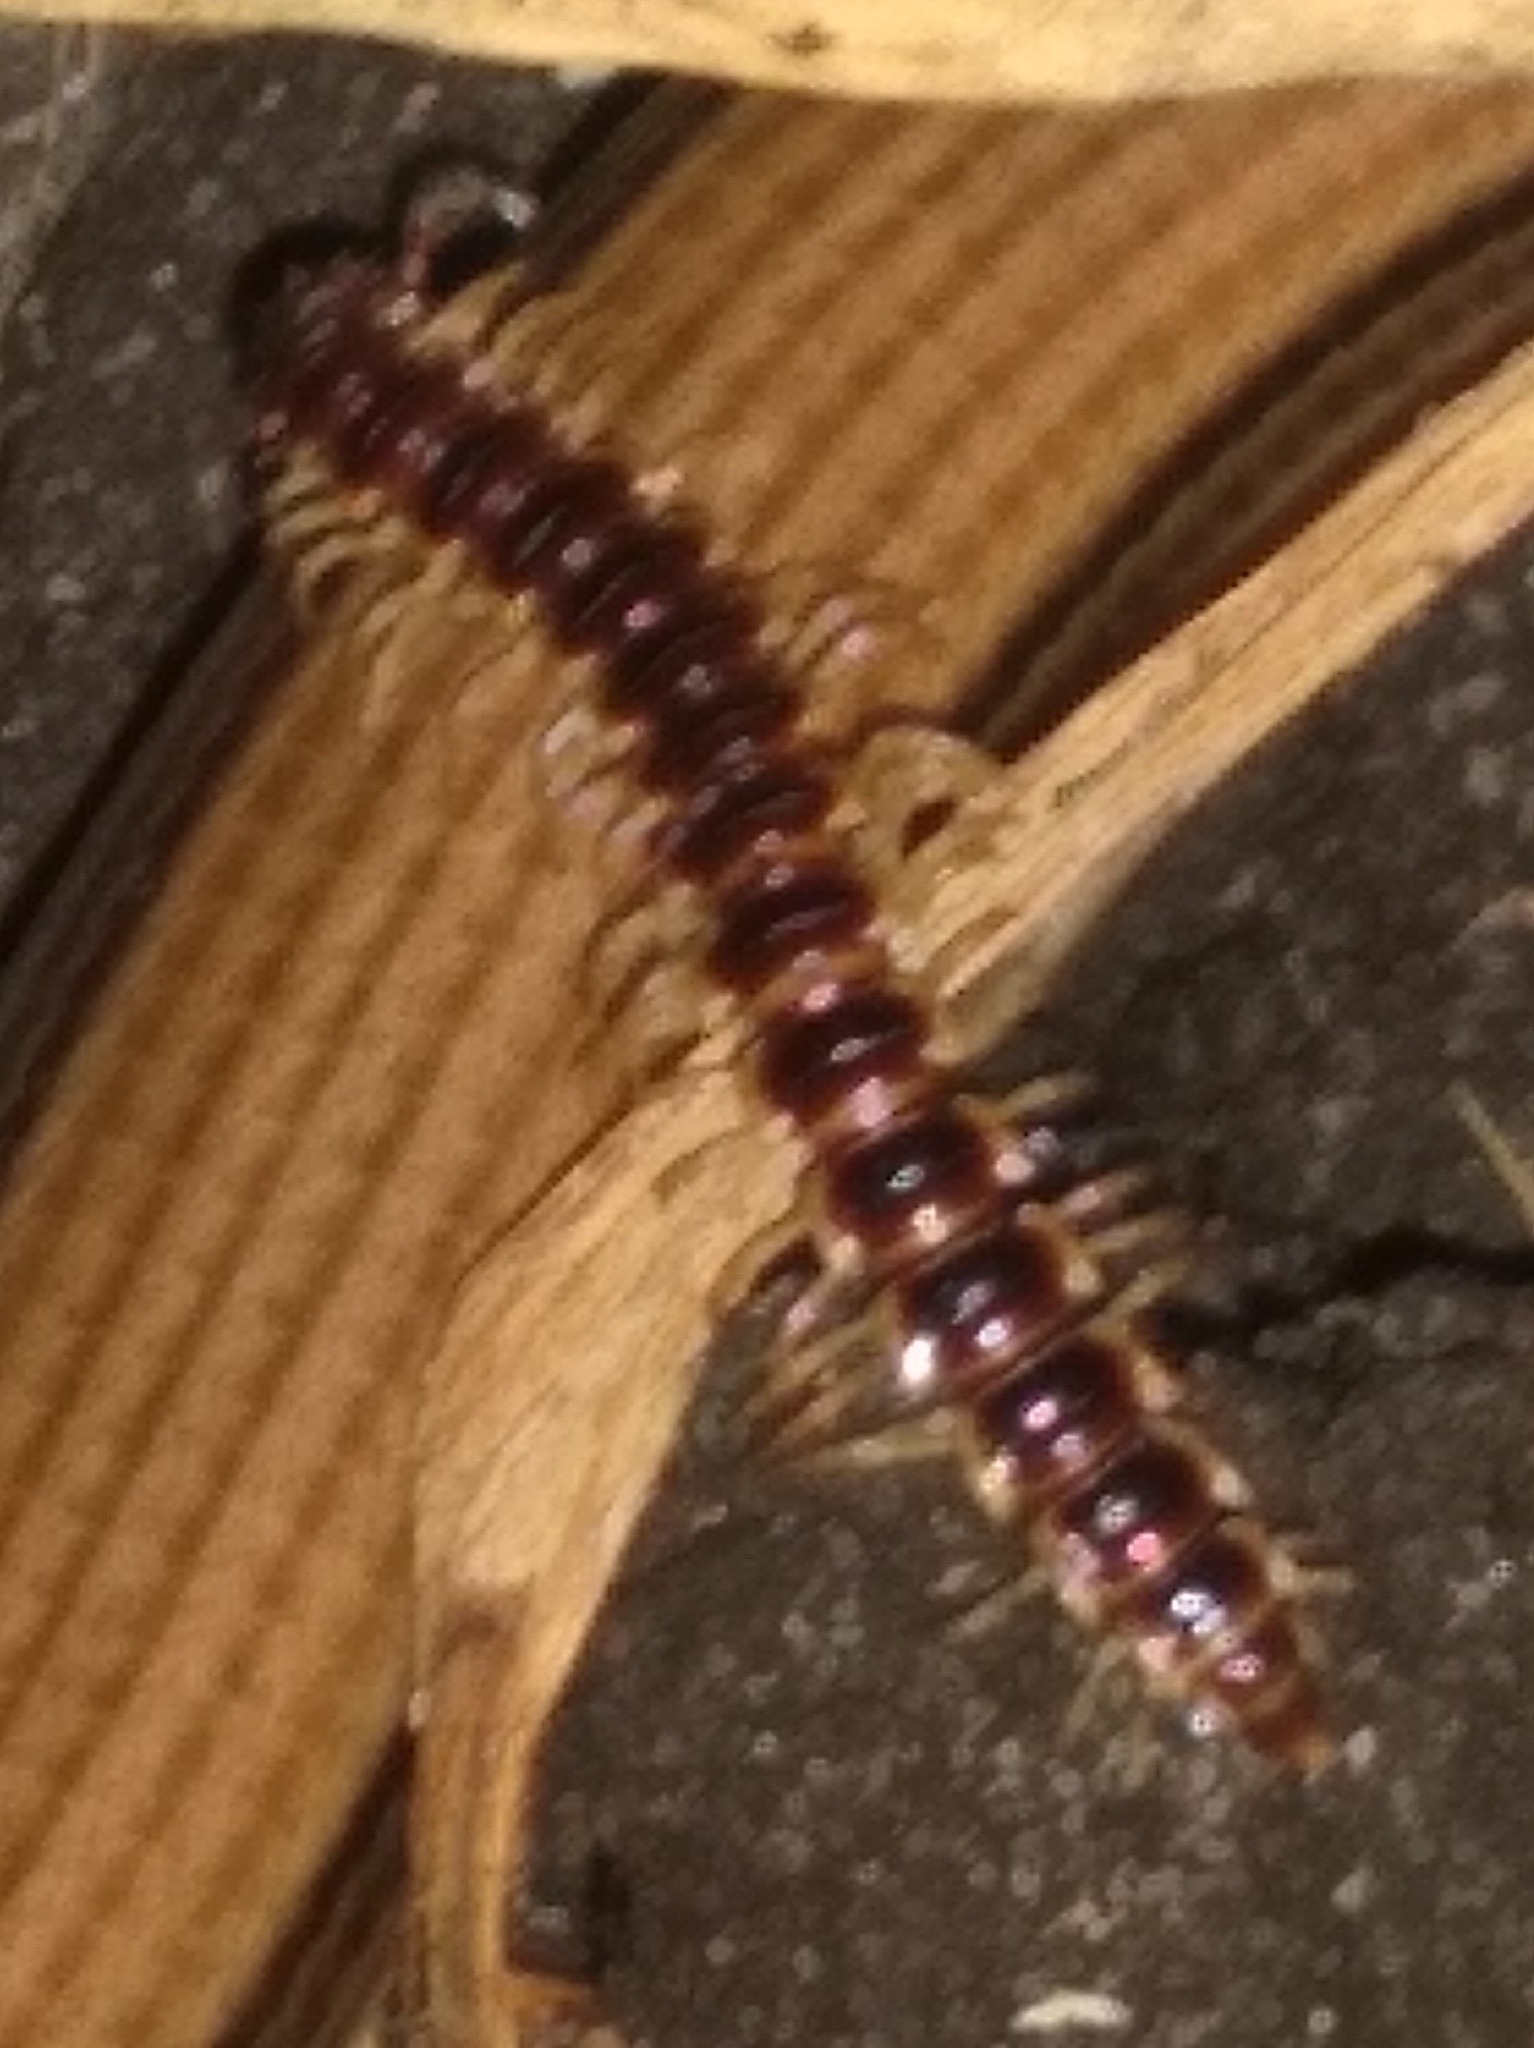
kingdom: Animalia
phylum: Arthropoda
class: Diplopoda
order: Polydesmida
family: Paradoxosomatidae
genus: Oxidus
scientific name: Oxidus gracilis
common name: Greenhouse millipede
